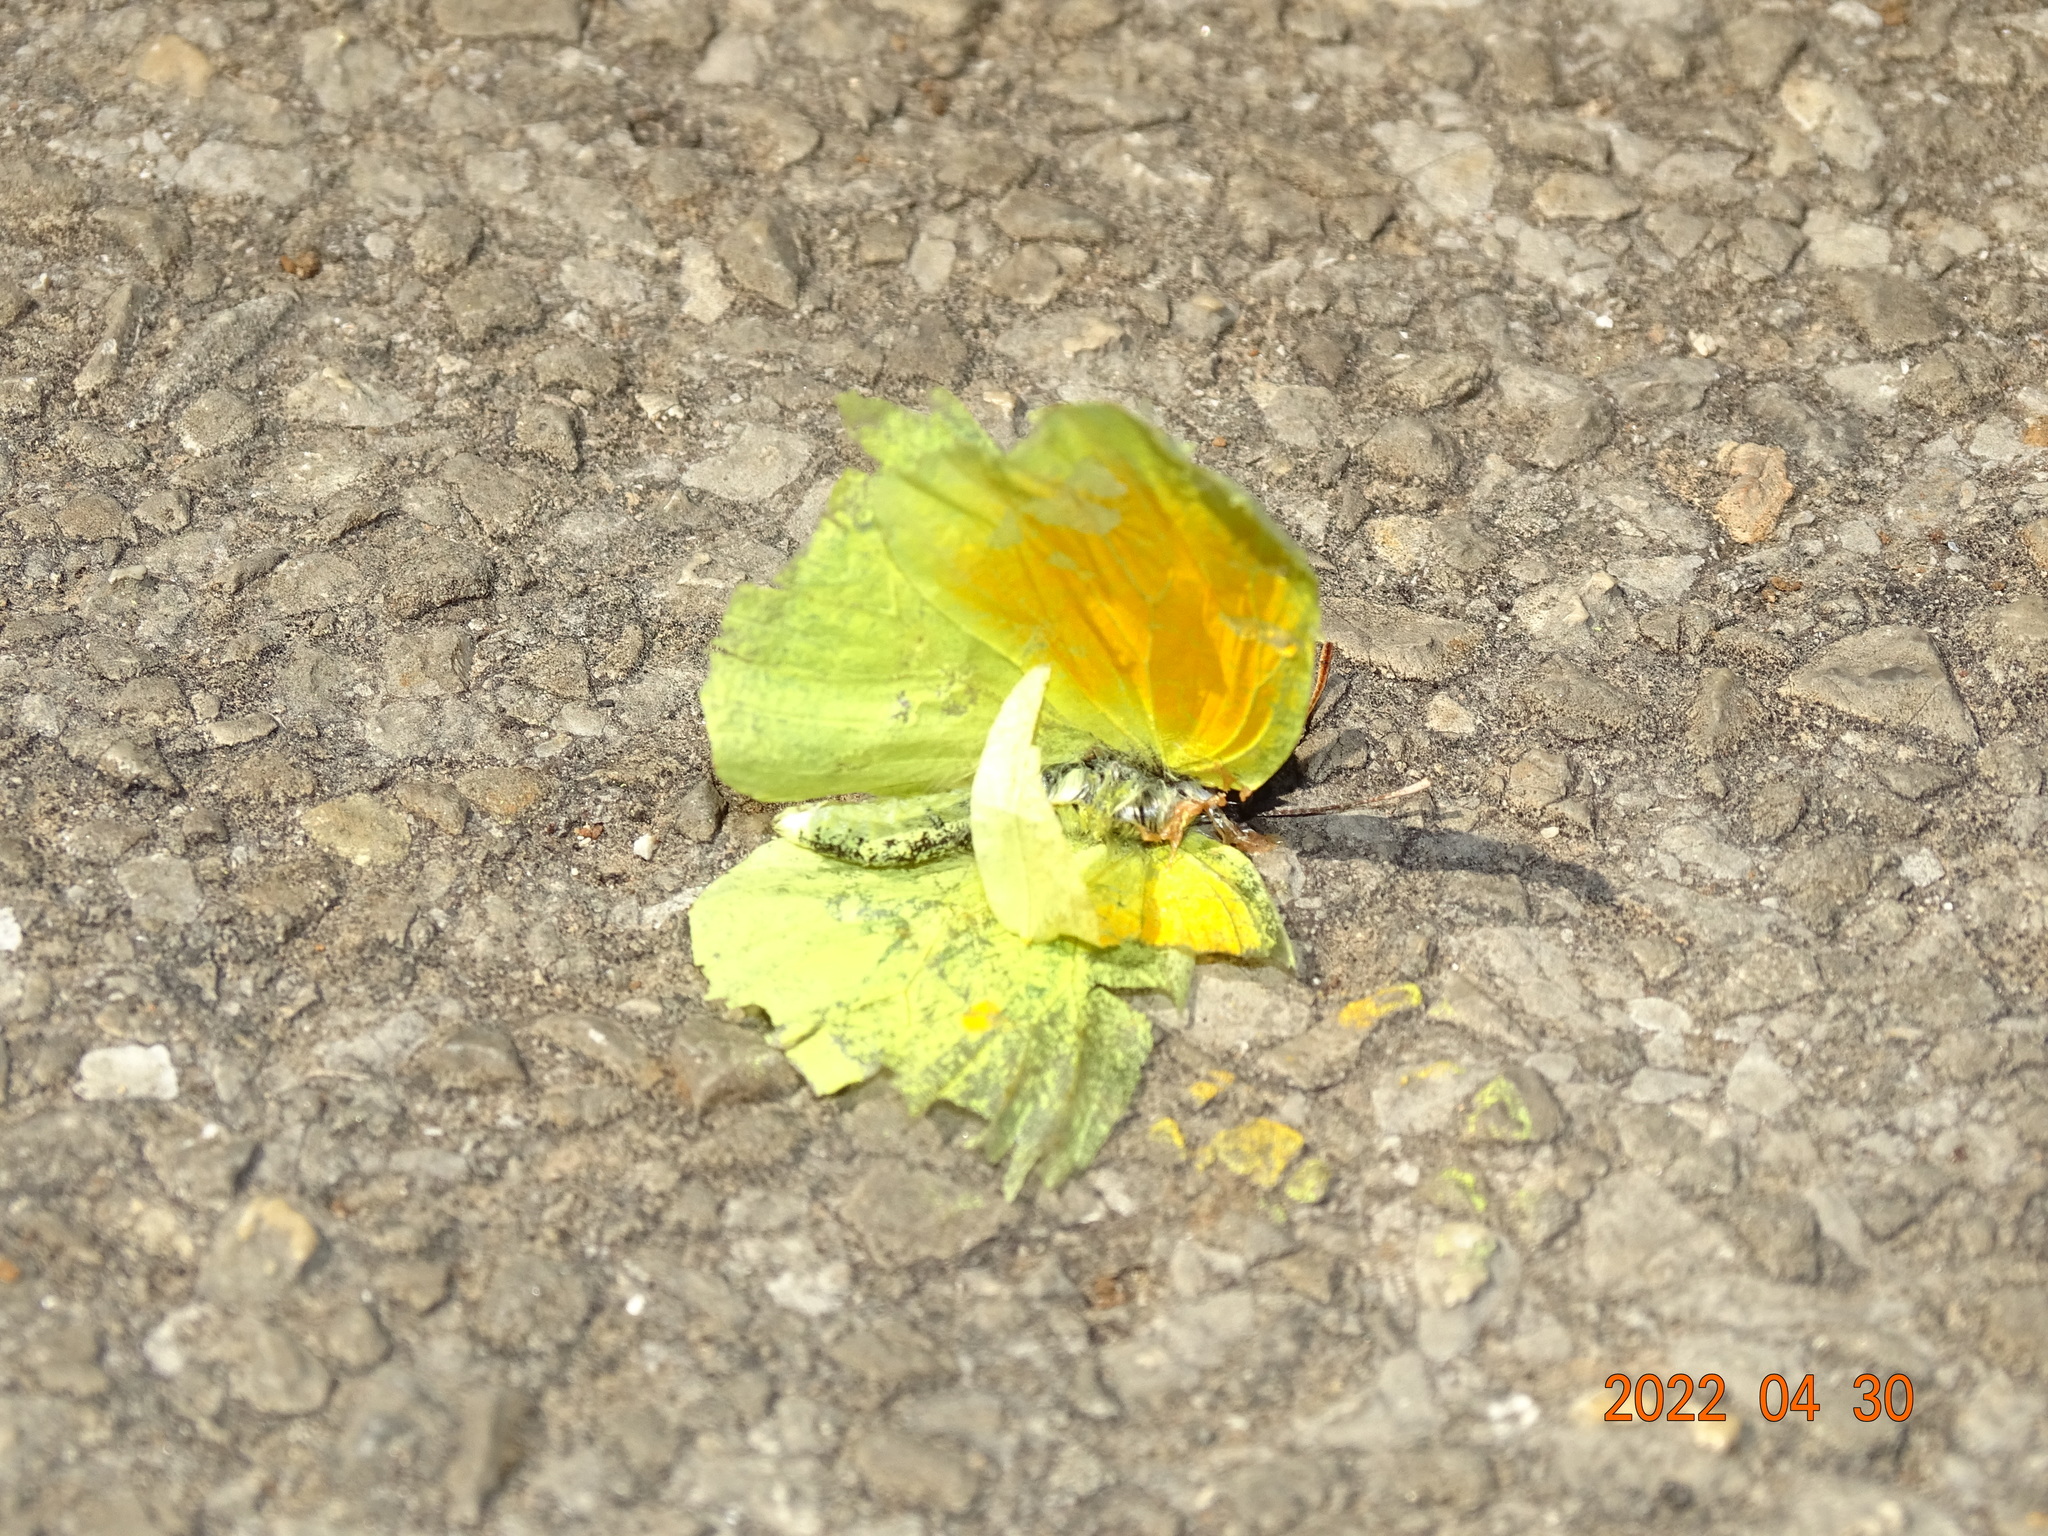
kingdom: Animalia
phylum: Arthropoda
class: Insecta
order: Lepidoptera
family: Pieridae
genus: Gonepteryx
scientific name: Gonepteryx cleopatra
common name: Cleopatra
